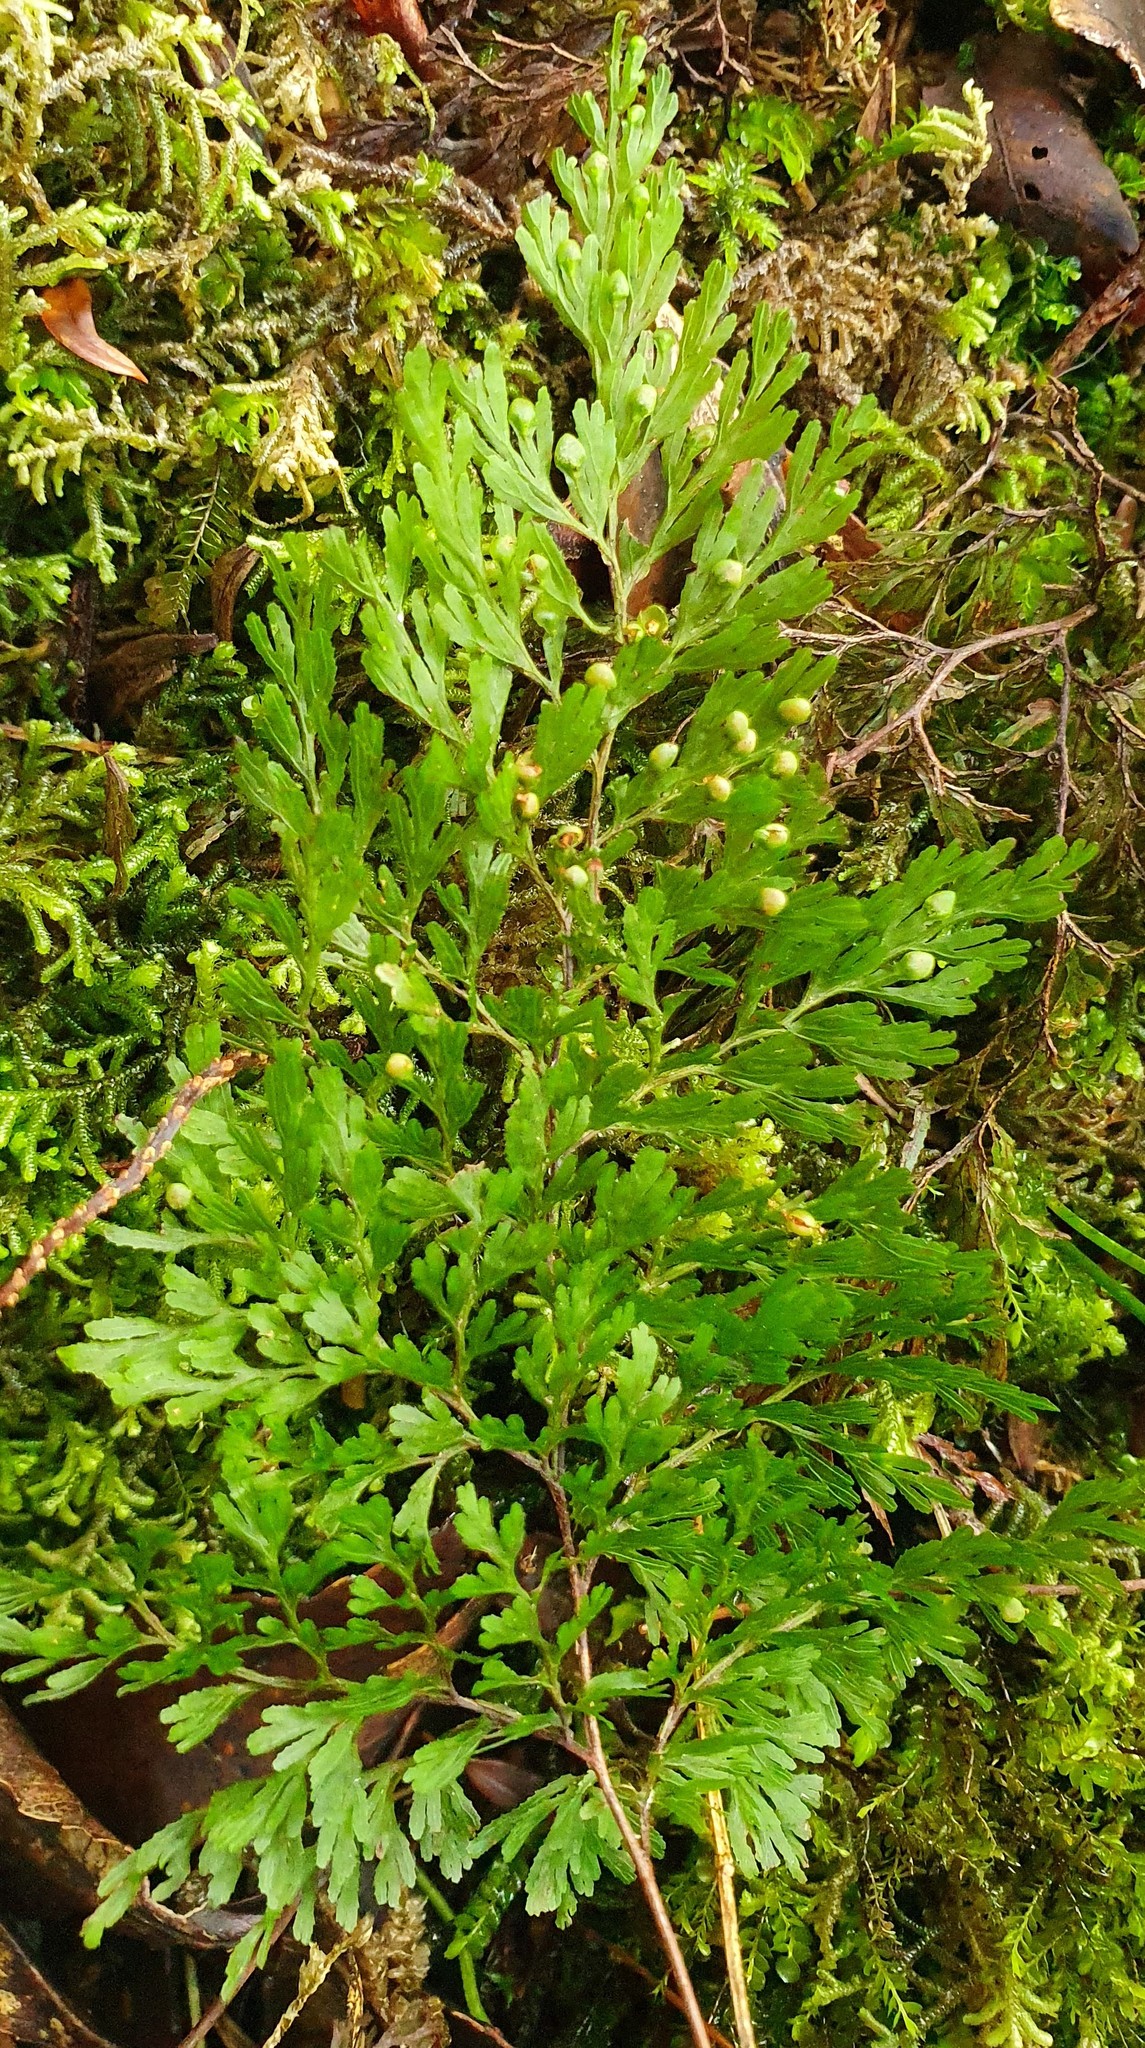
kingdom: Plantae
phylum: Tracheophyta
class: Polypodiopsida
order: Hymenophyllales
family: Hymenophyllaceae
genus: Hymenophyllum
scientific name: Hymenophyllum multifidum
